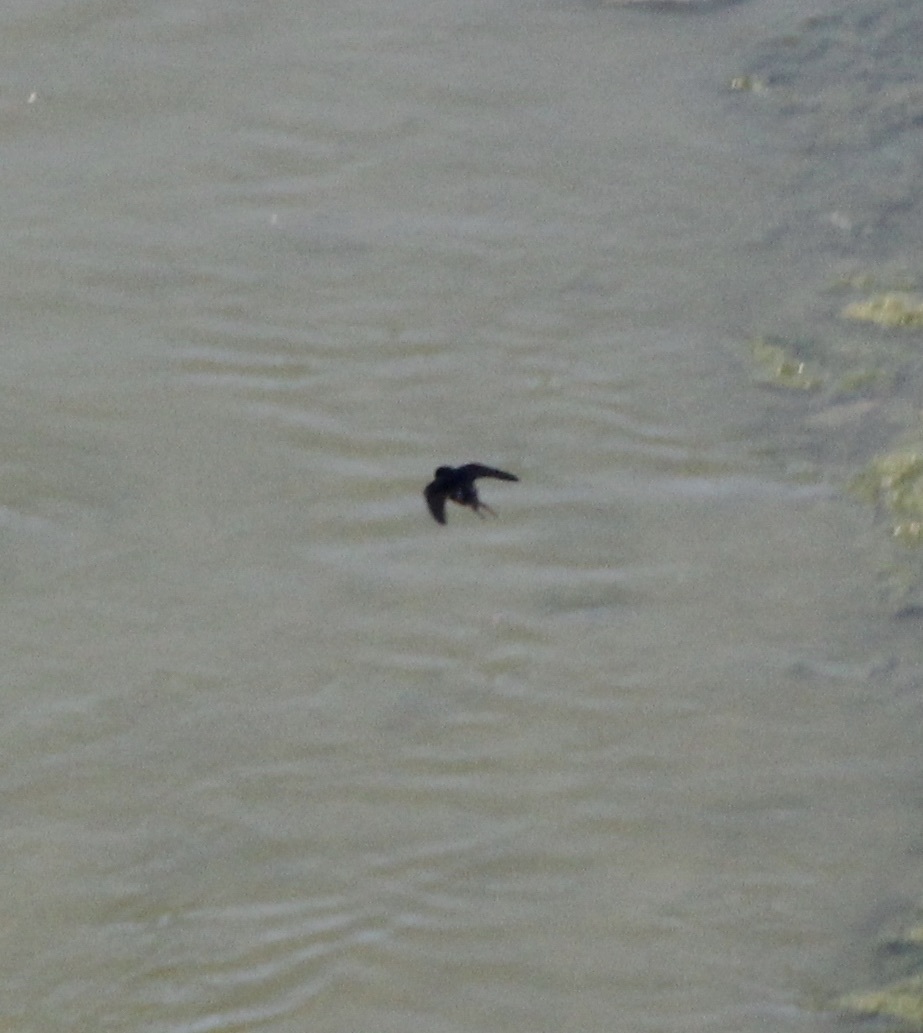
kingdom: Animalia
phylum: Chordata
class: Aves
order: Passeriformes
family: Hirundinidae
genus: Hirundo
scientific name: Hirundo rustica
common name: Barn swallow
